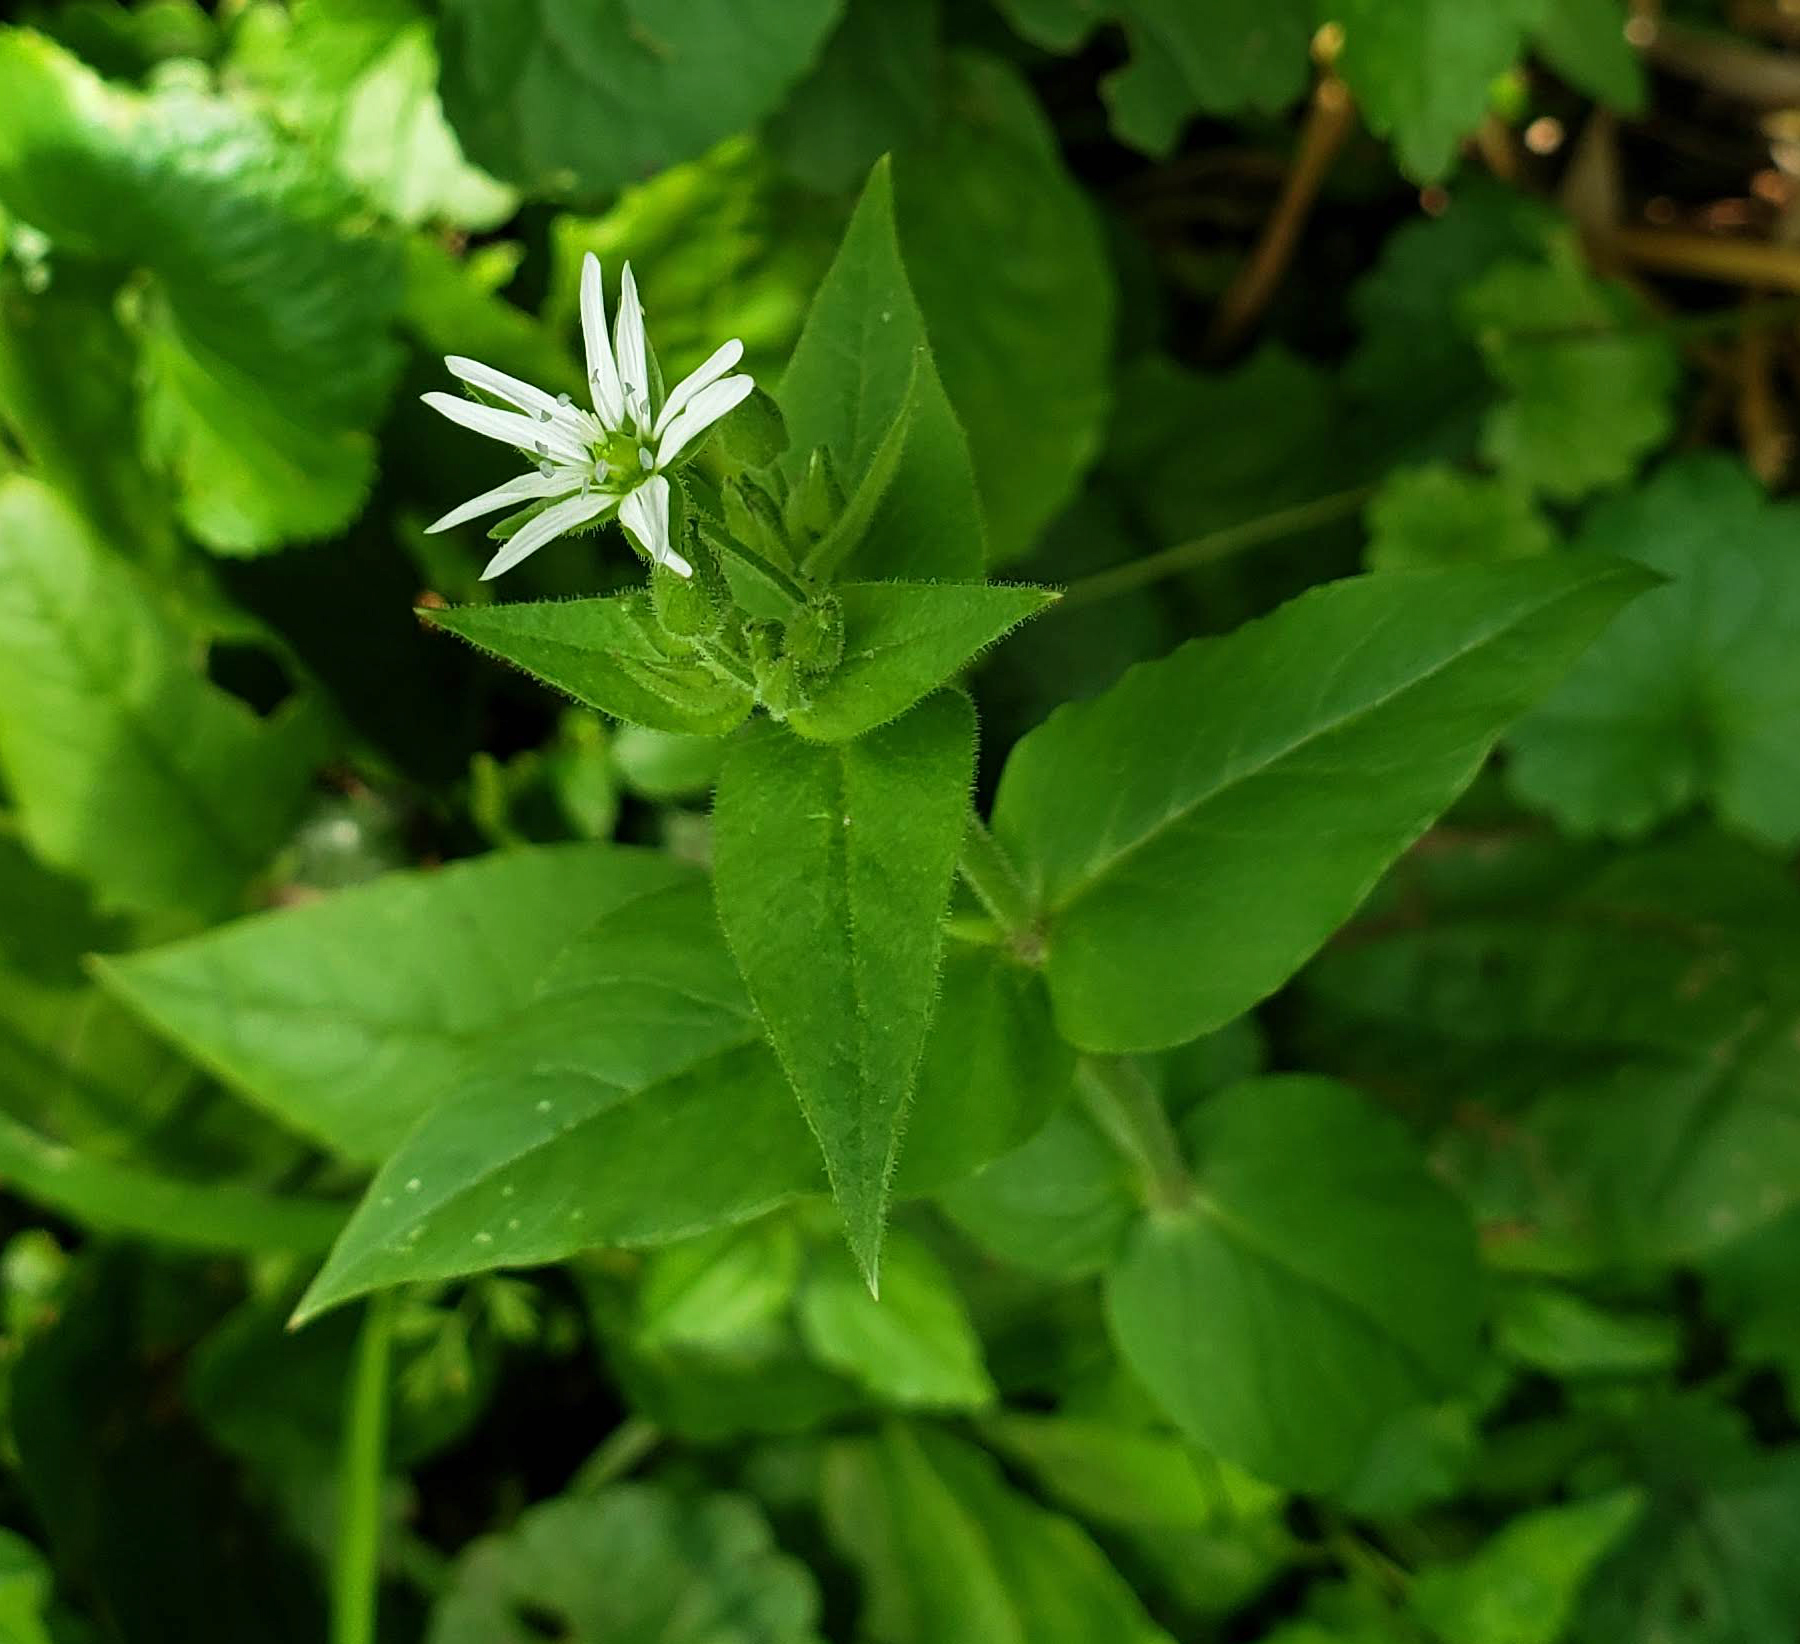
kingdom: Plantae
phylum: Tracheophyta
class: Magnoliopsida
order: Caryophyllales
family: Caryophyllaceae
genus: Stellaria
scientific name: Stellaria aquatica
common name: Water chickweed
